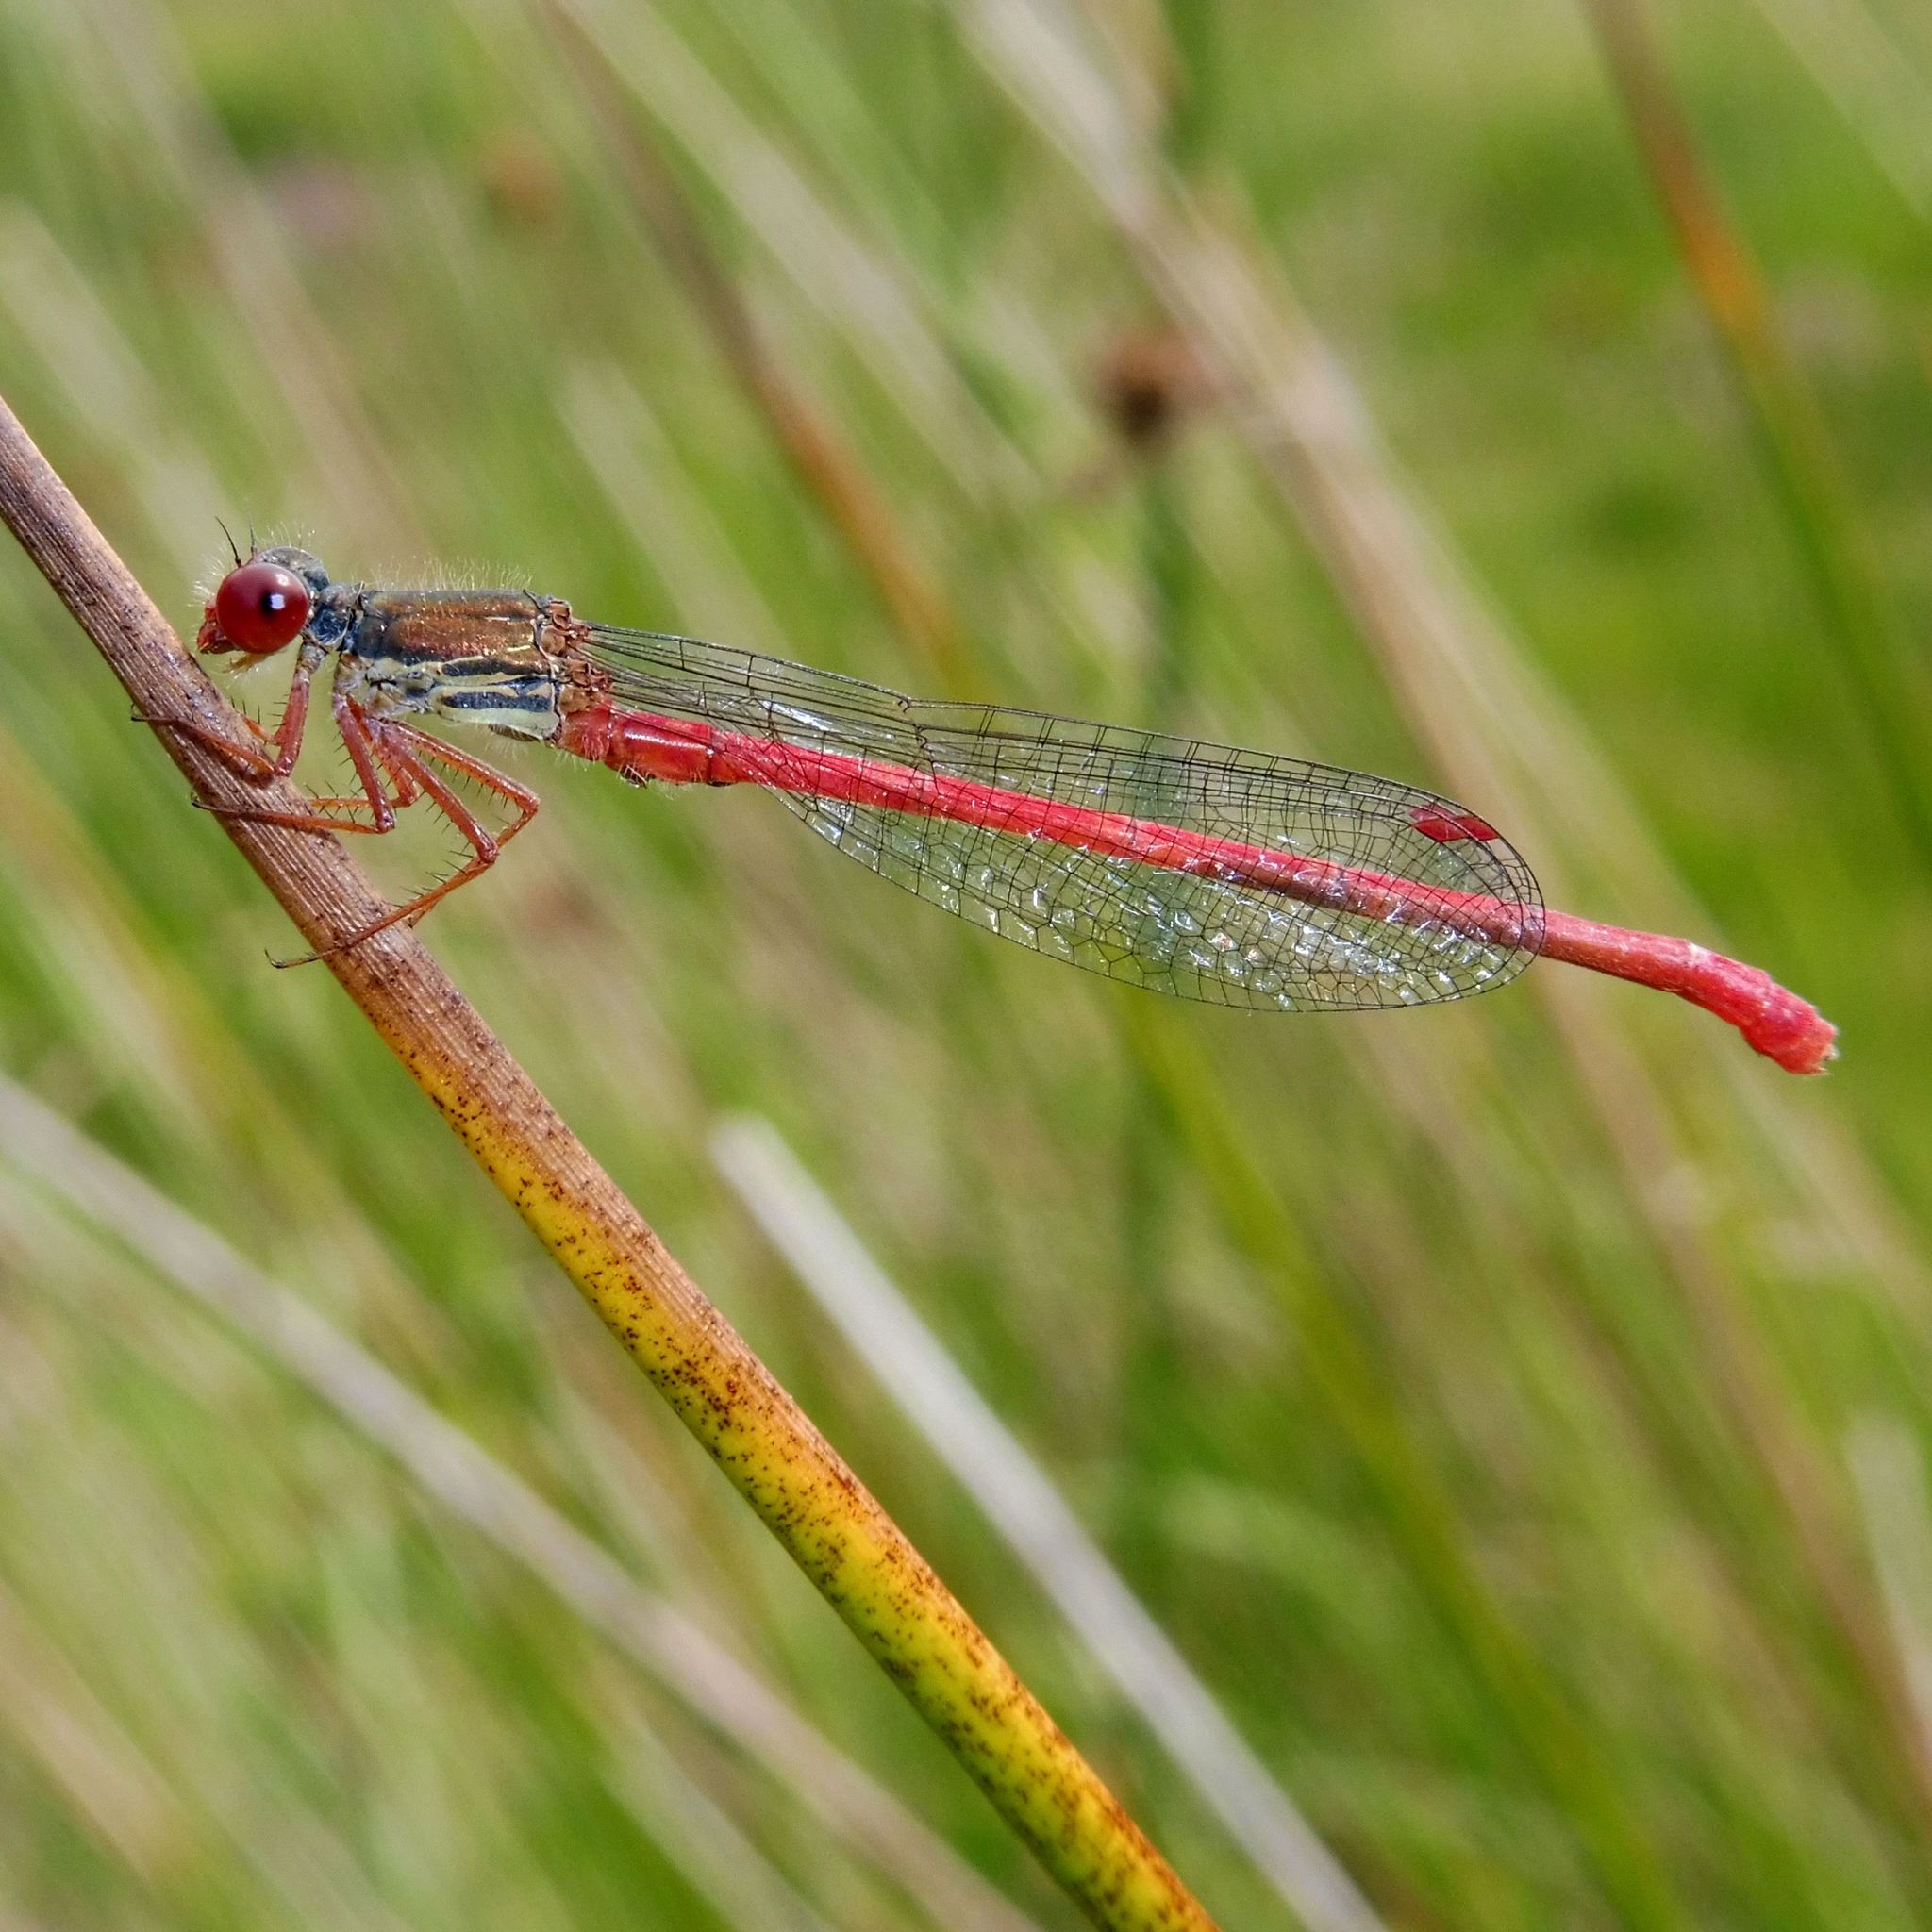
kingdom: Animalia
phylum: Arthropoda
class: Insecta
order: Odonata
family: Coenagrionidae
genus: Ceriagrion
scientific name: Ceriagrion tenellum
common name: Small red damselfly
